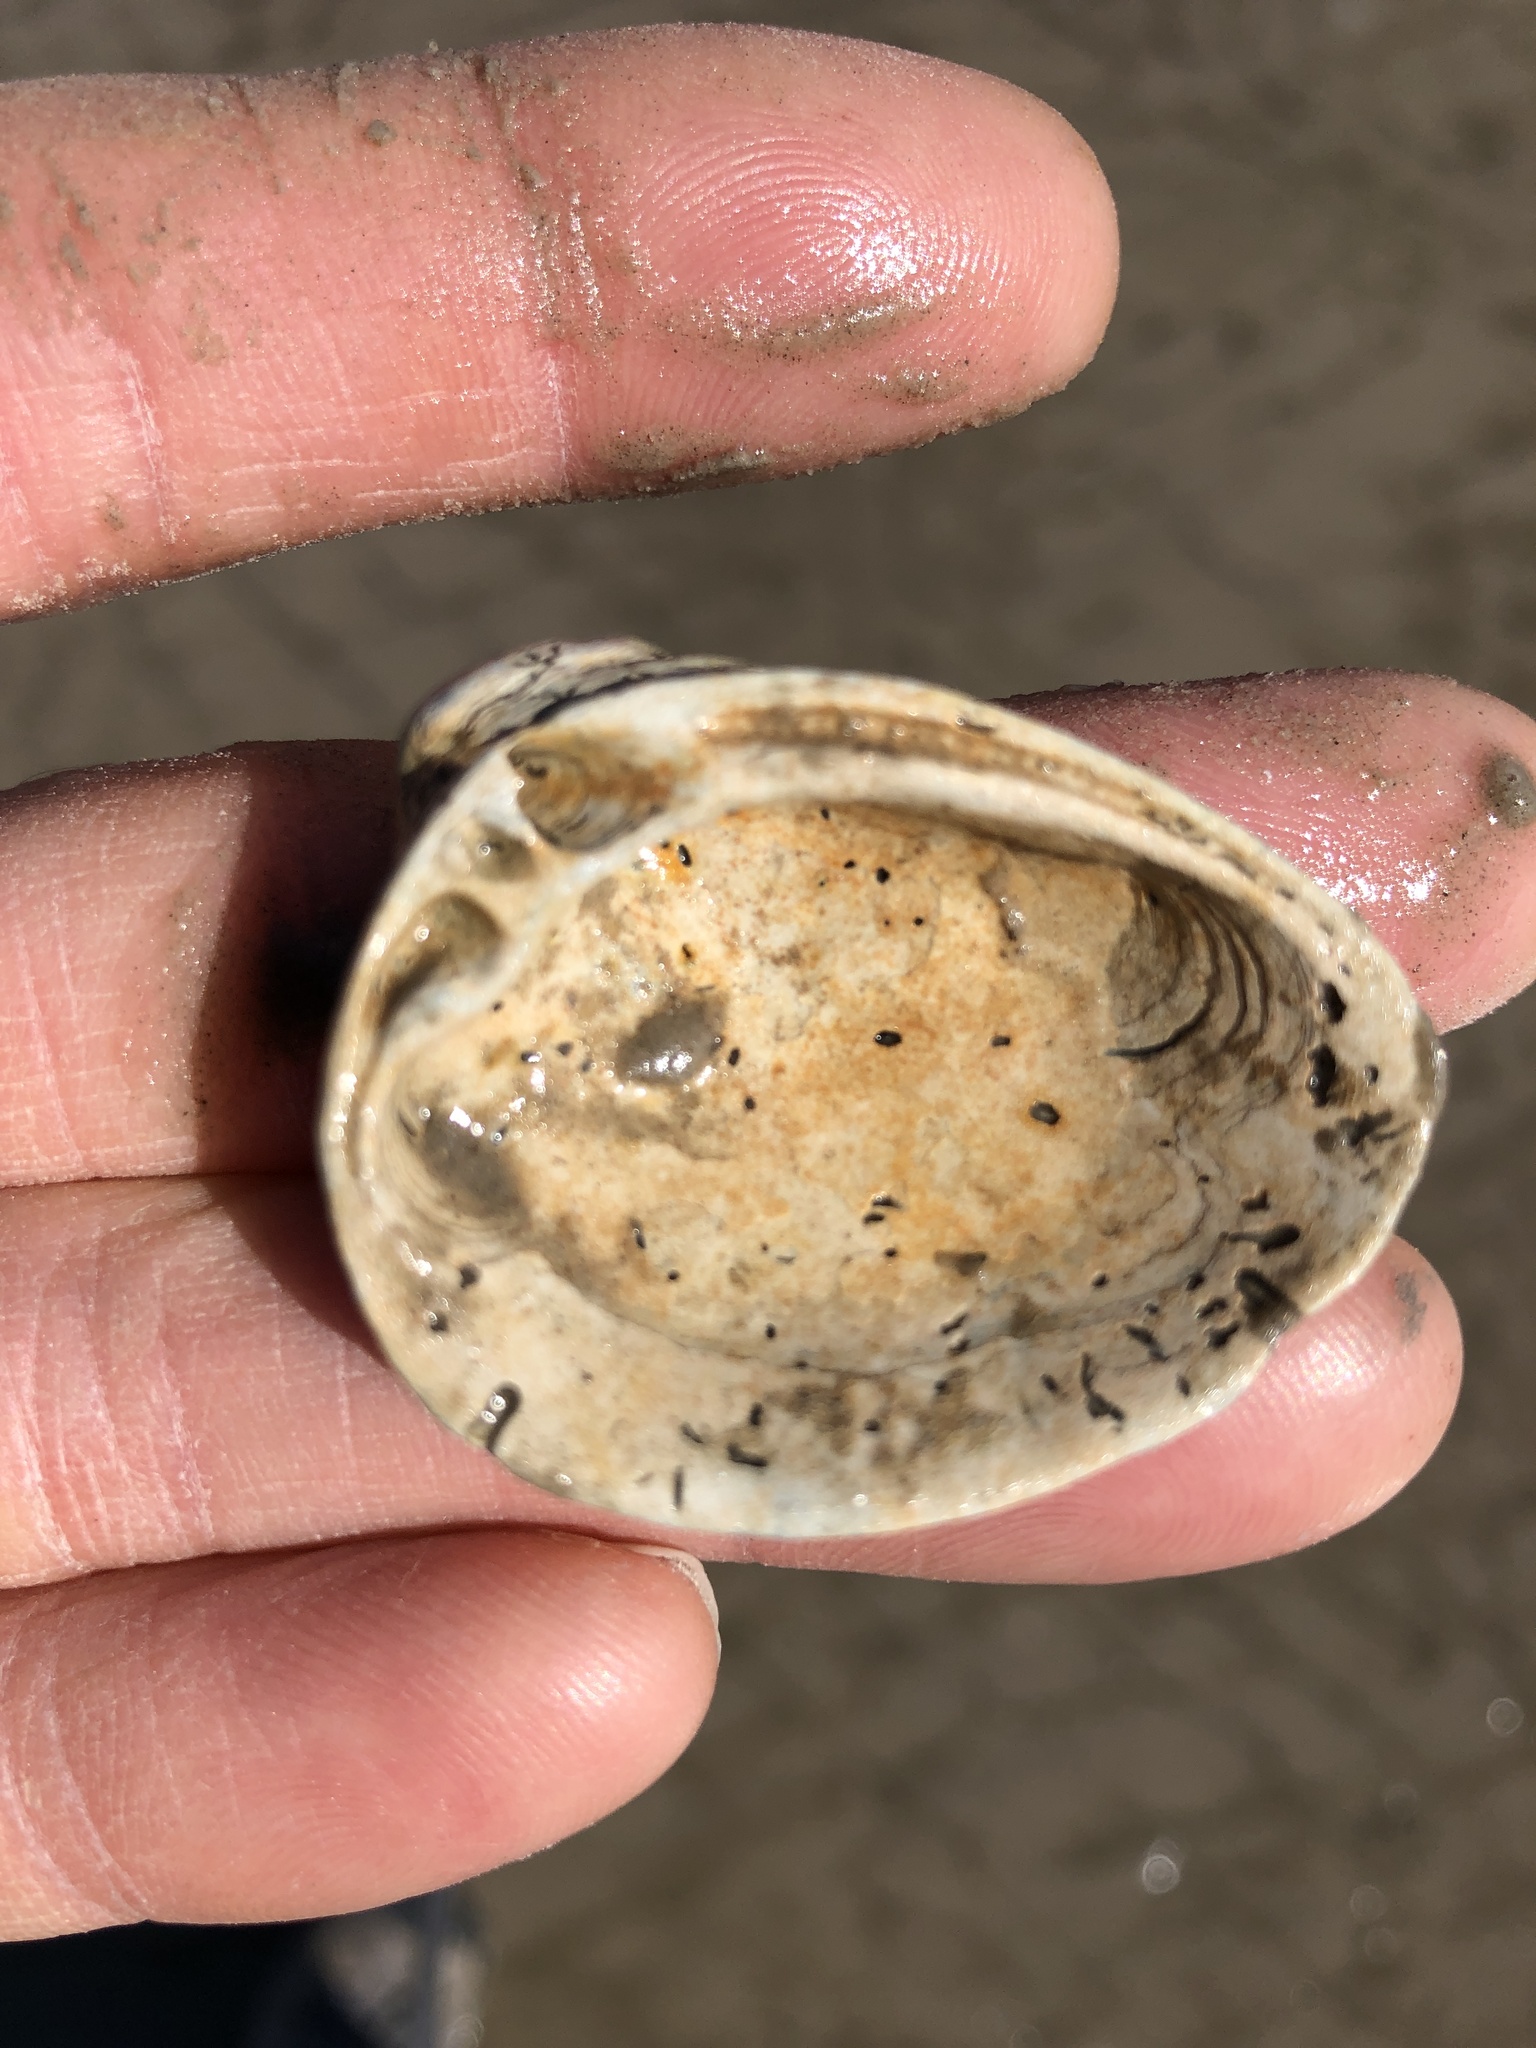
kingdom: Animalia
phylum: Mollusca
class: Bivalvia
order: Venerida
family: Mactridae
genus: Rangia
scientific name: Rangia cuneata
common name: Atlantic rangia
